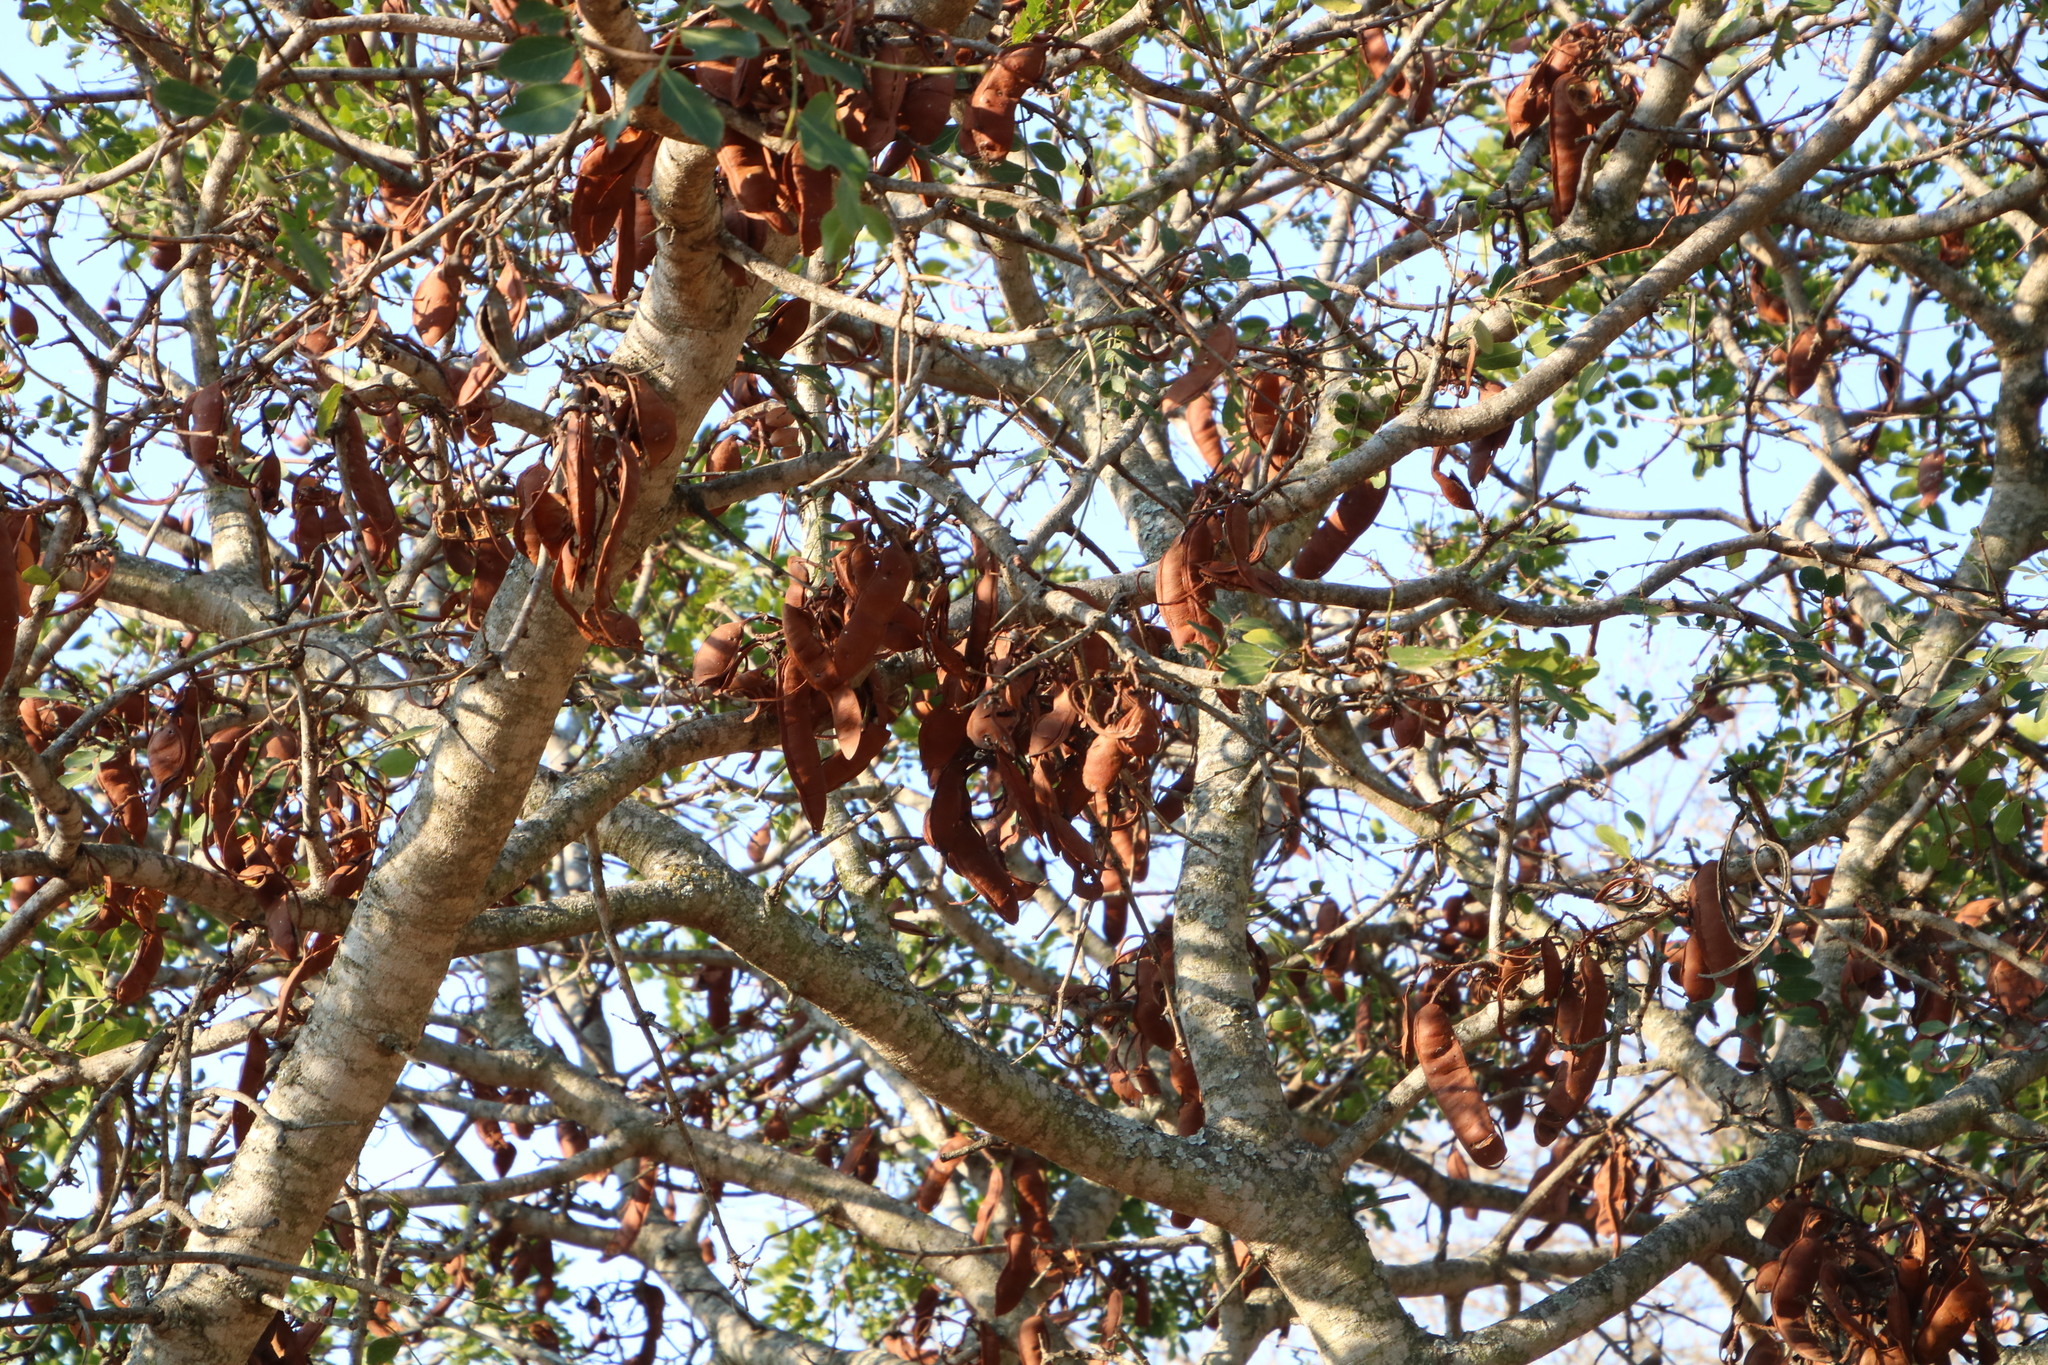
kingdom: Plantae
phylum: Tracheophyta
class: Magnoliopsida
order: Fabales
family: Fabaceae
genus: Schotia
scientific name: Schotia brachypetala
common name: Weeping boer-bean
